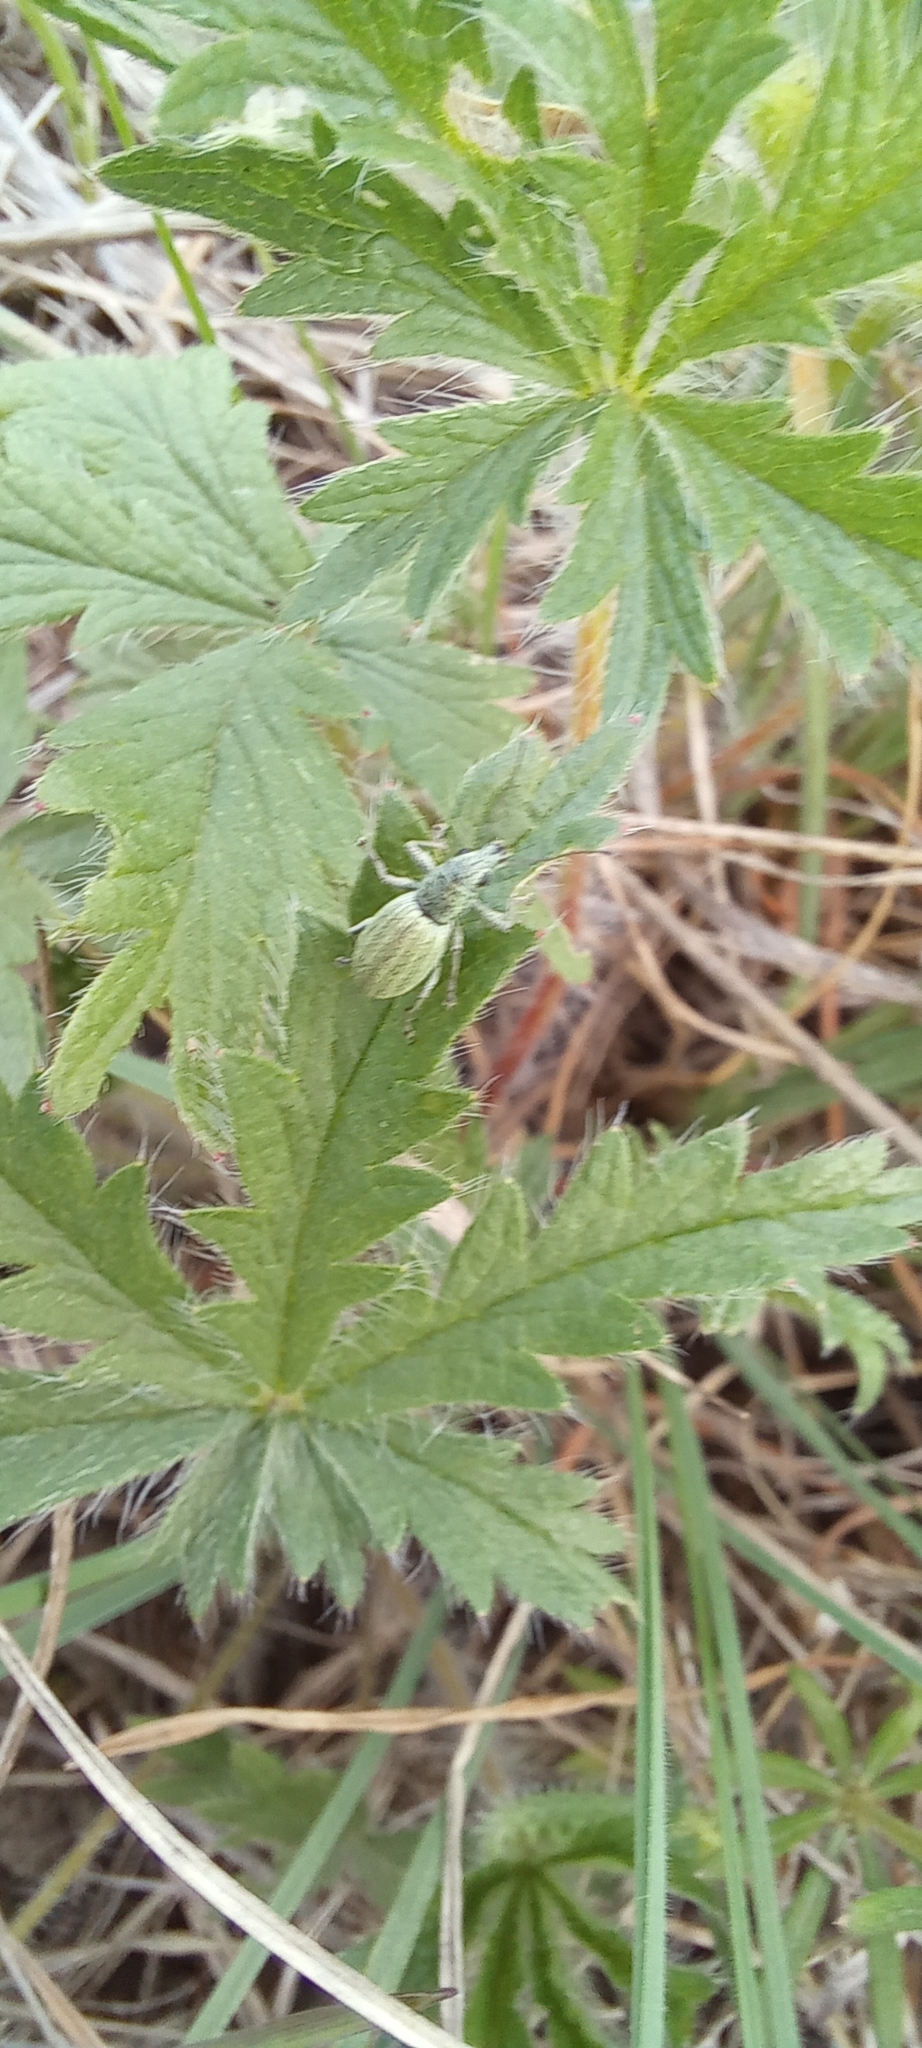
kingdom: Animalia
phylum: Arthropoda
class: Insecta
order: Coleoptera
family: Curculionidae
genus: Eusomus
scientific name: Eusomus ovulum
